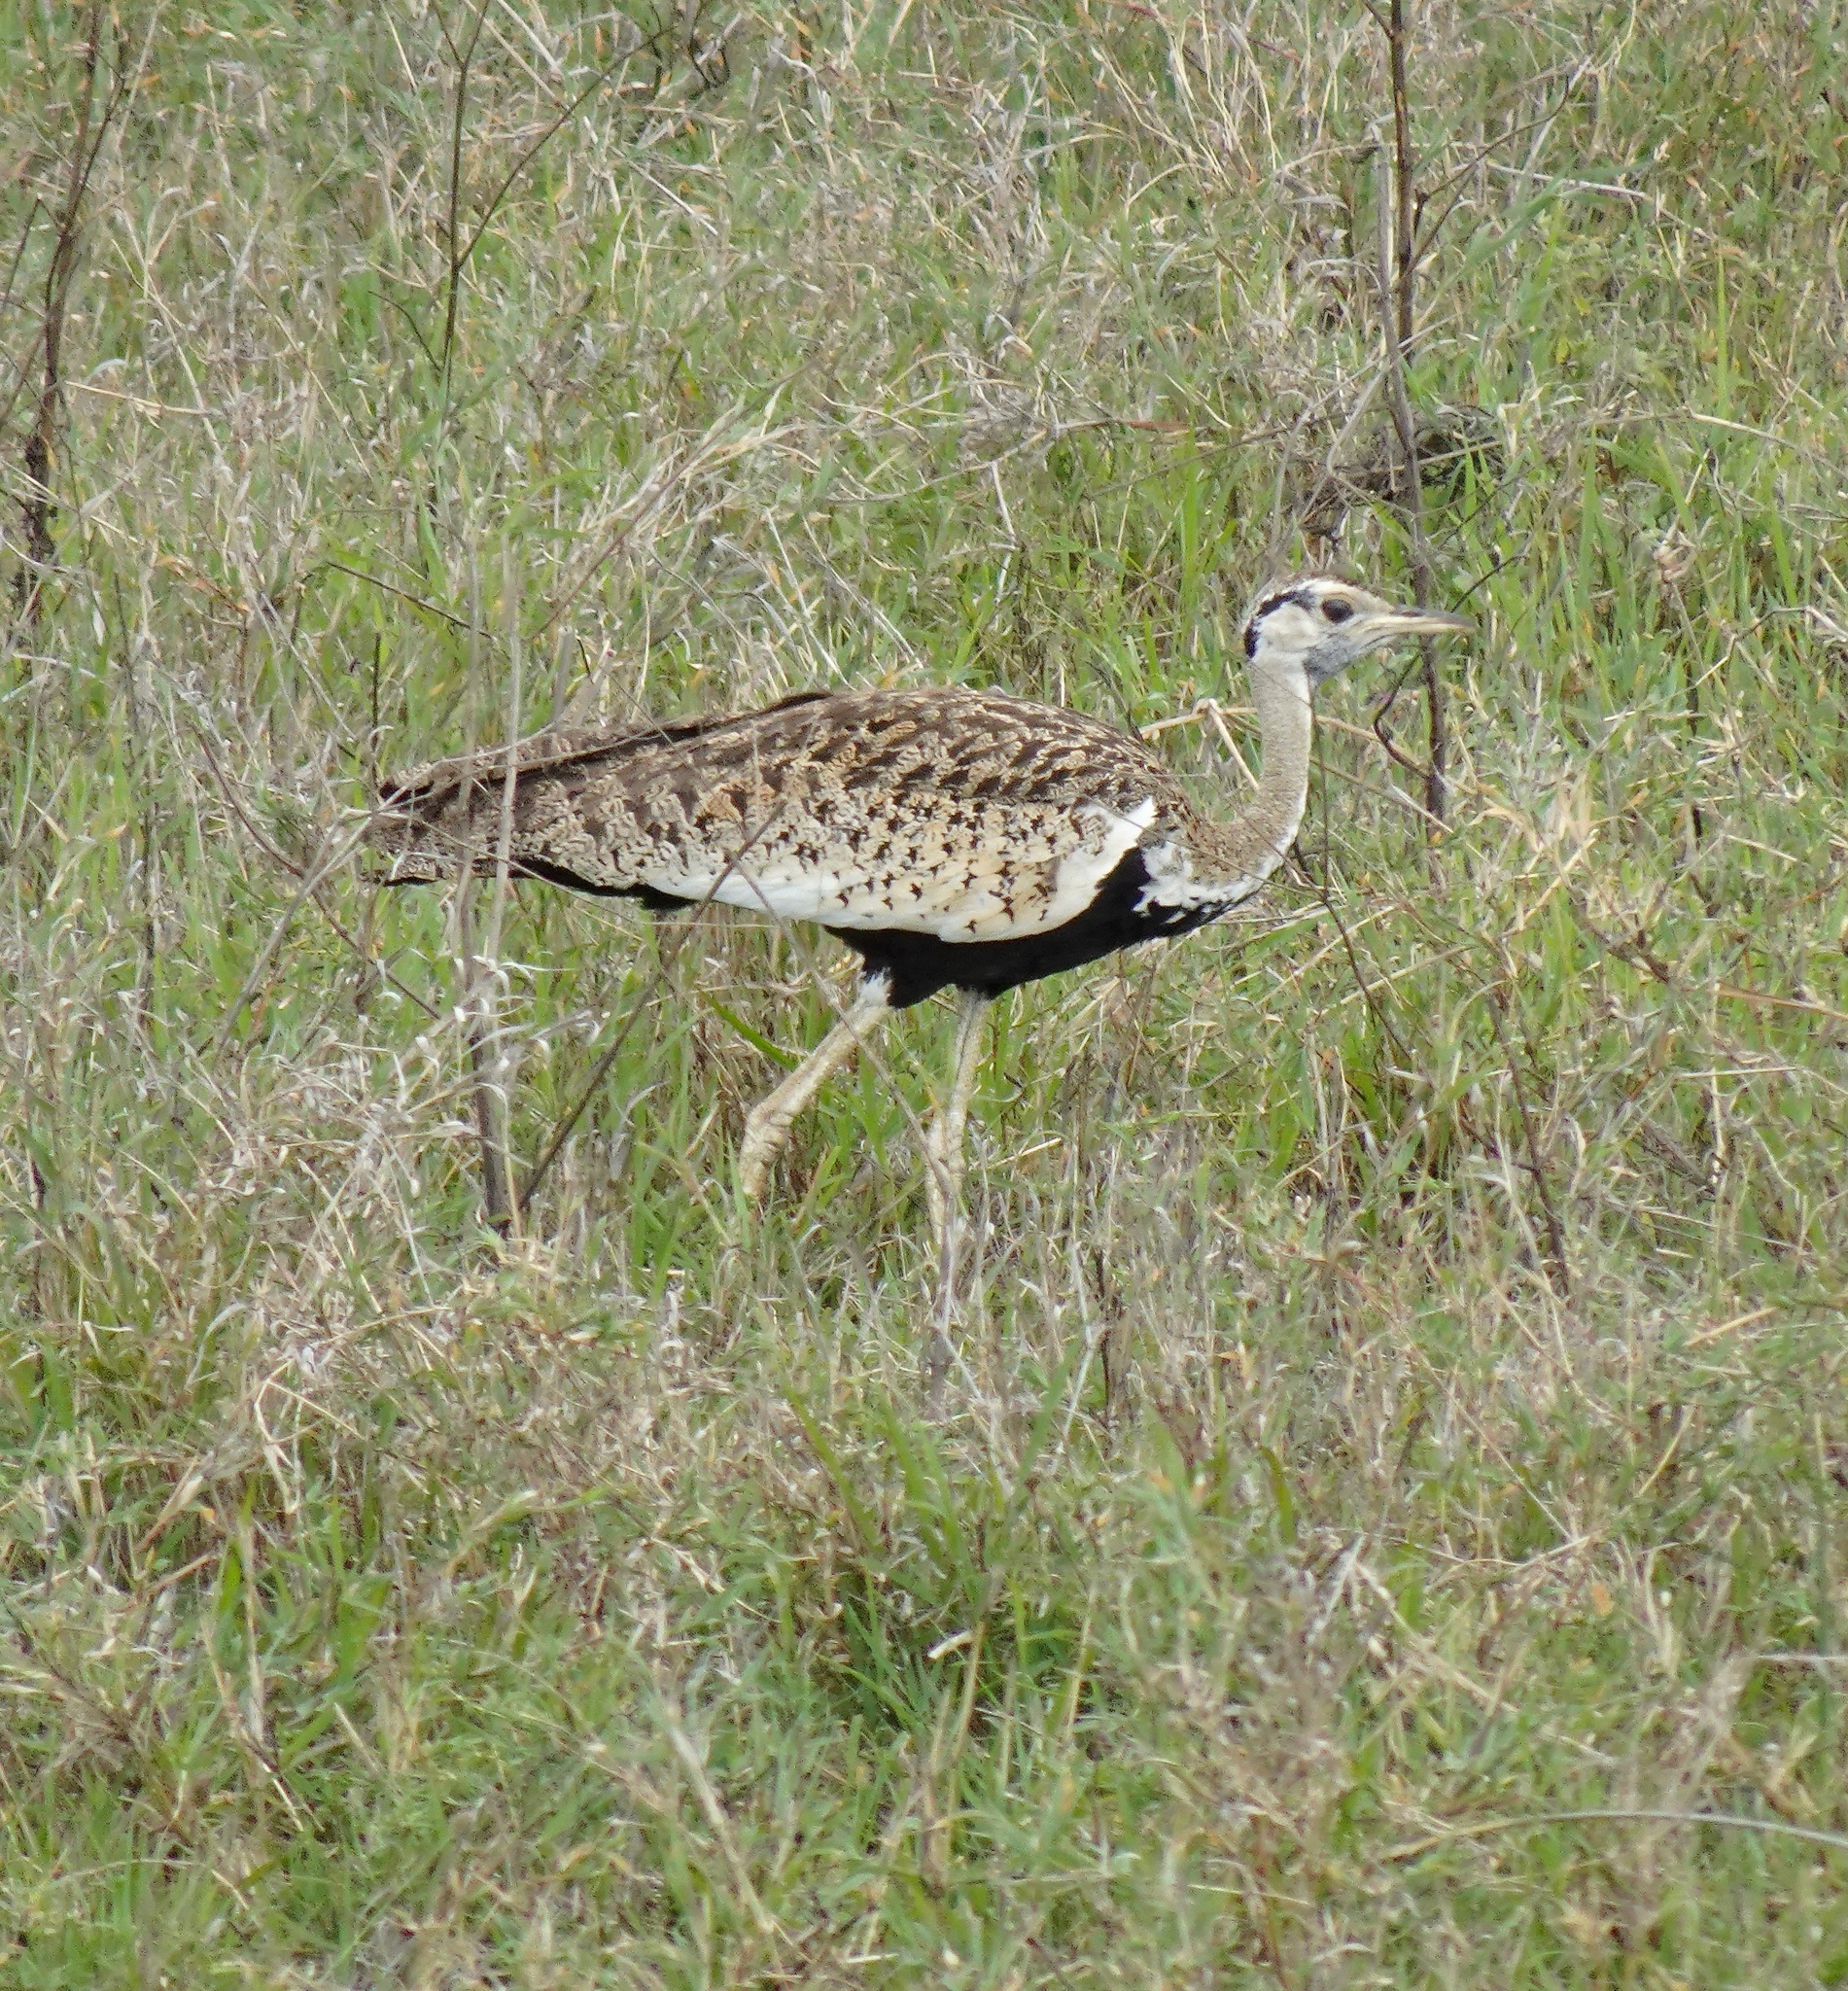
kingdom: Animalia
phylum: Chordata
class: Aves
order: Otidiformes
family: Otididae
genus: Lissotis
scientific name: Lissotis melanogaster
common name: Black-bellied bustard
